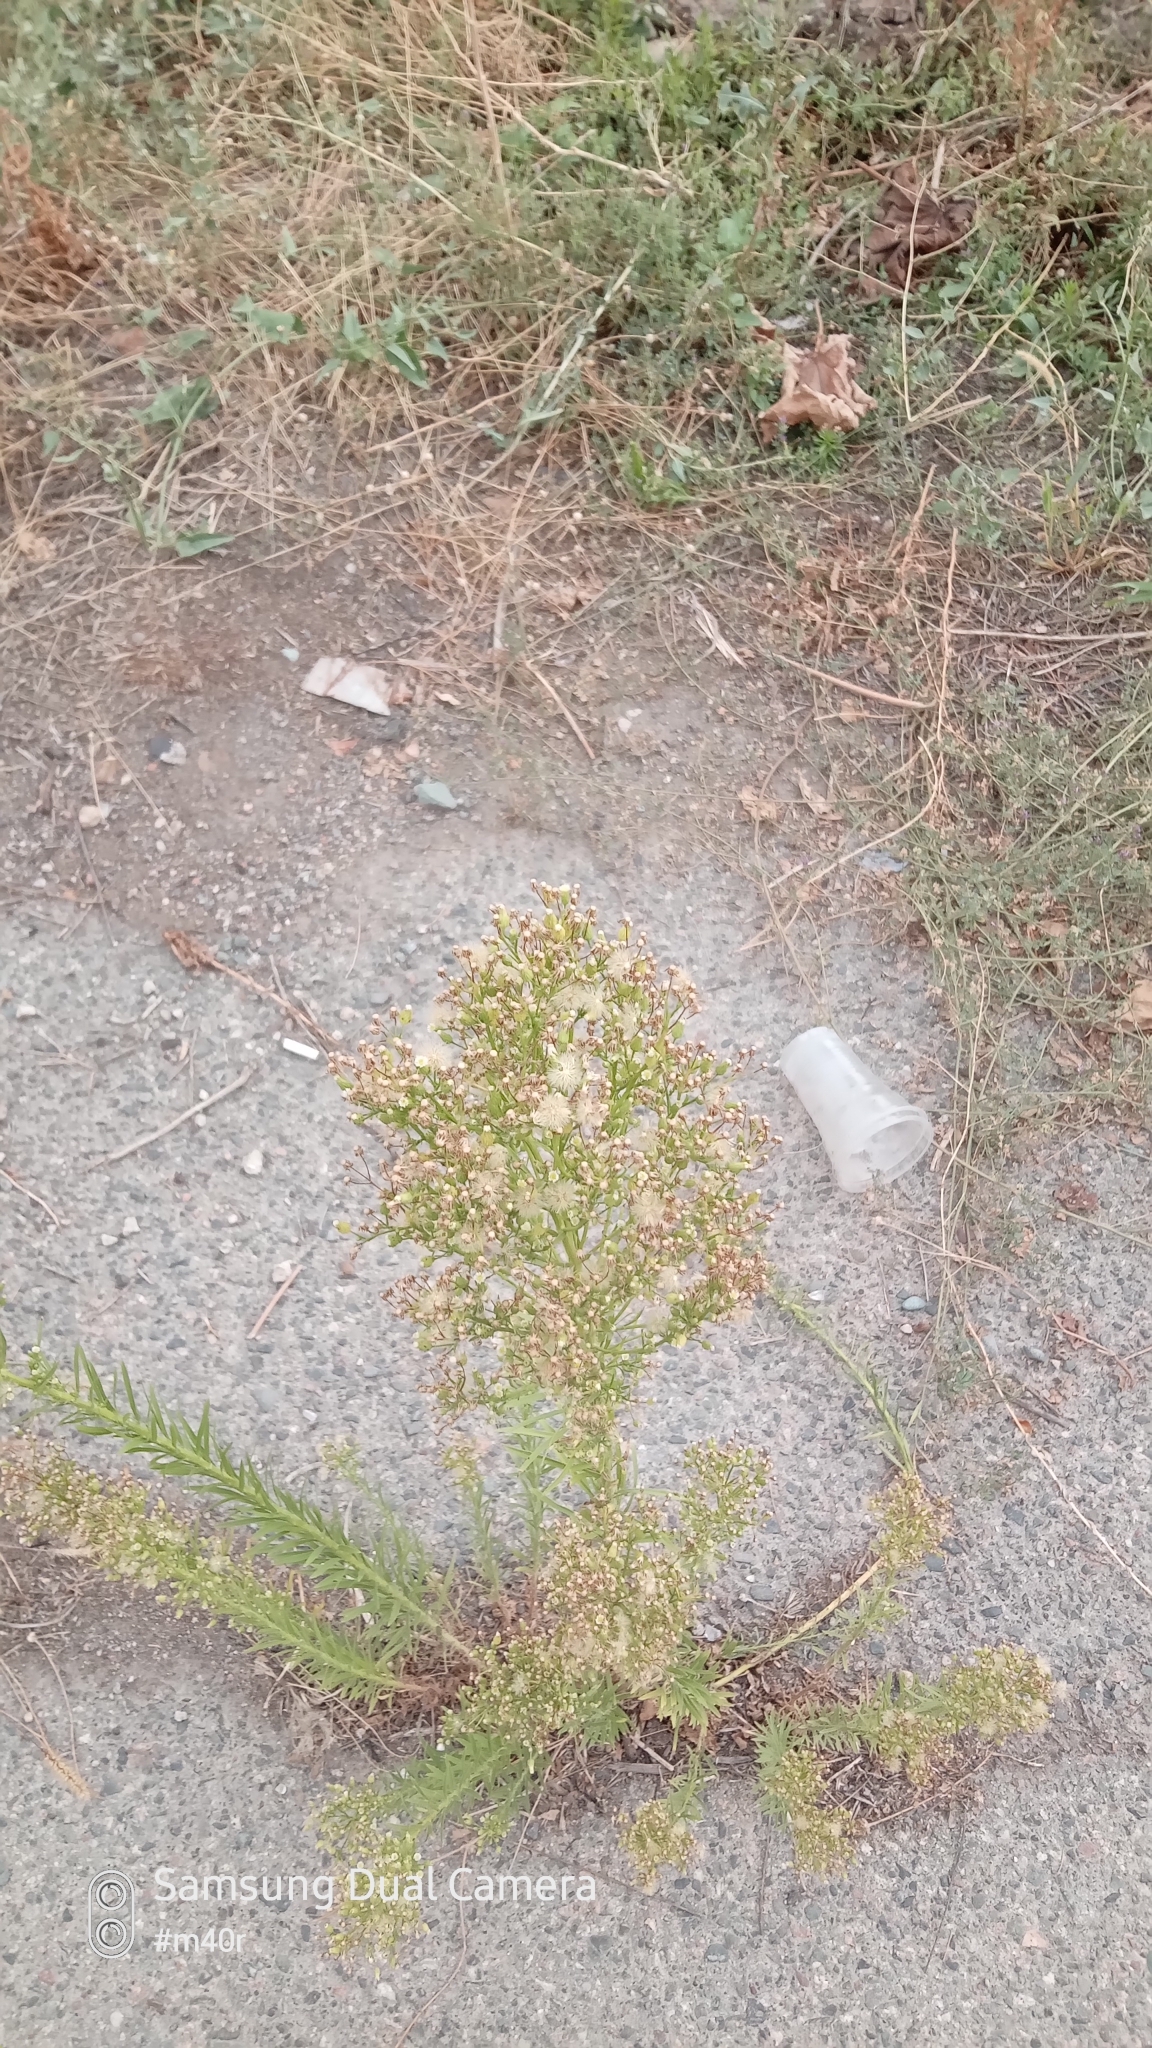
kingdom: Plantae
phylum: Tracheophyta
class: Magnoliopsida
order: Asterales
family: Asteraceae
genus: Erigeron
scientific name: Erigeron canadensis
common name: Canadian fleabane
